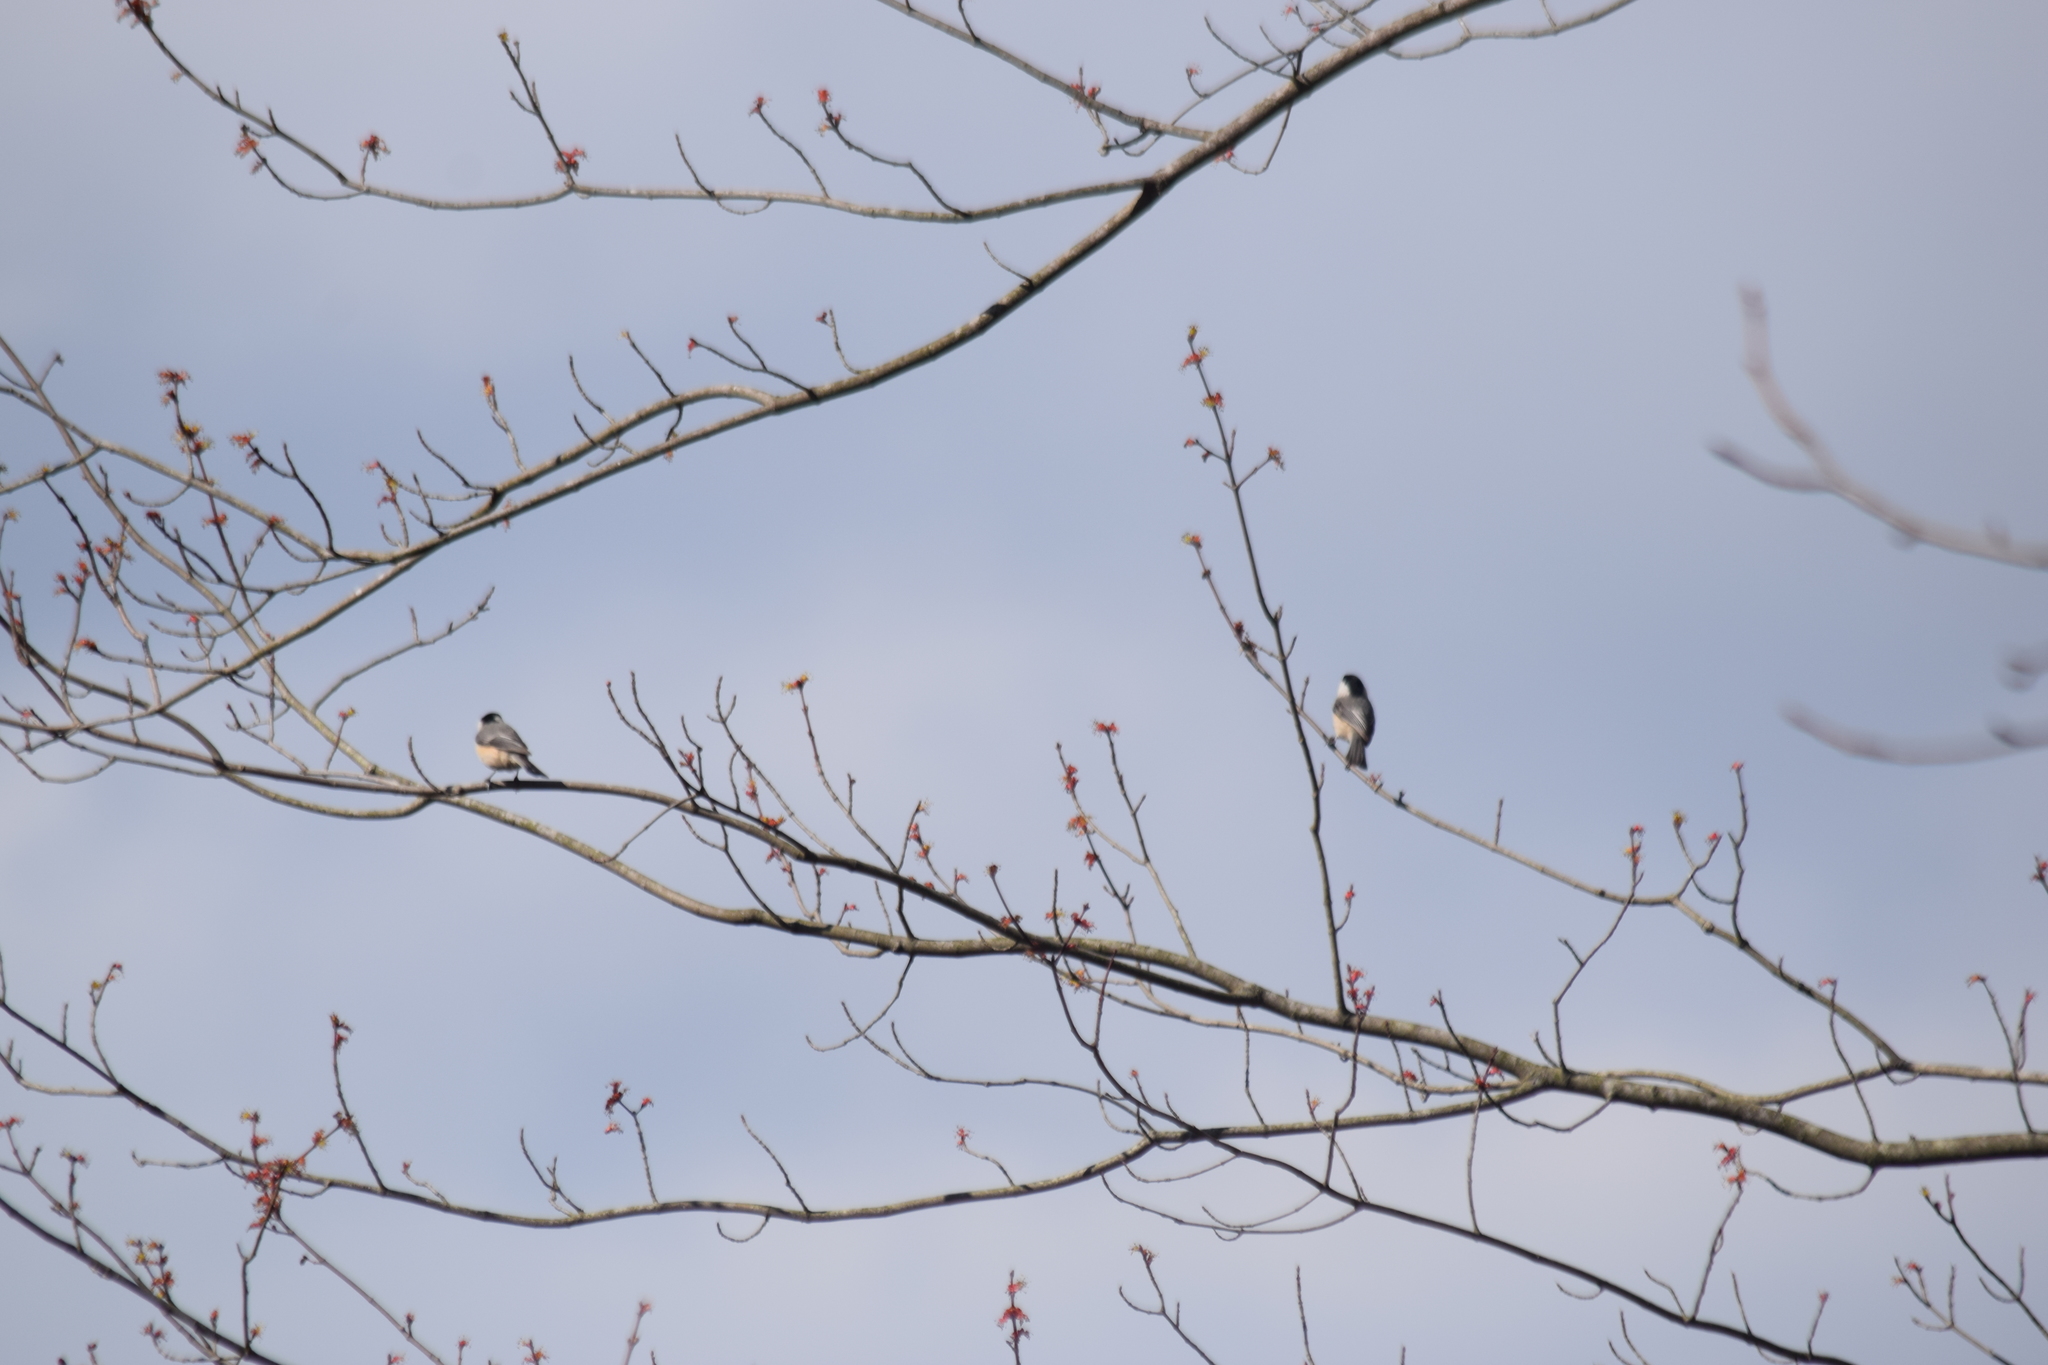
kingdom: Animalia
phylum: Chordata
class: Aves
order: Passeriformes
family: Paridae
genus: Poecile
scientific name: Poecile carolinensis
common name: Carolina chickadee
